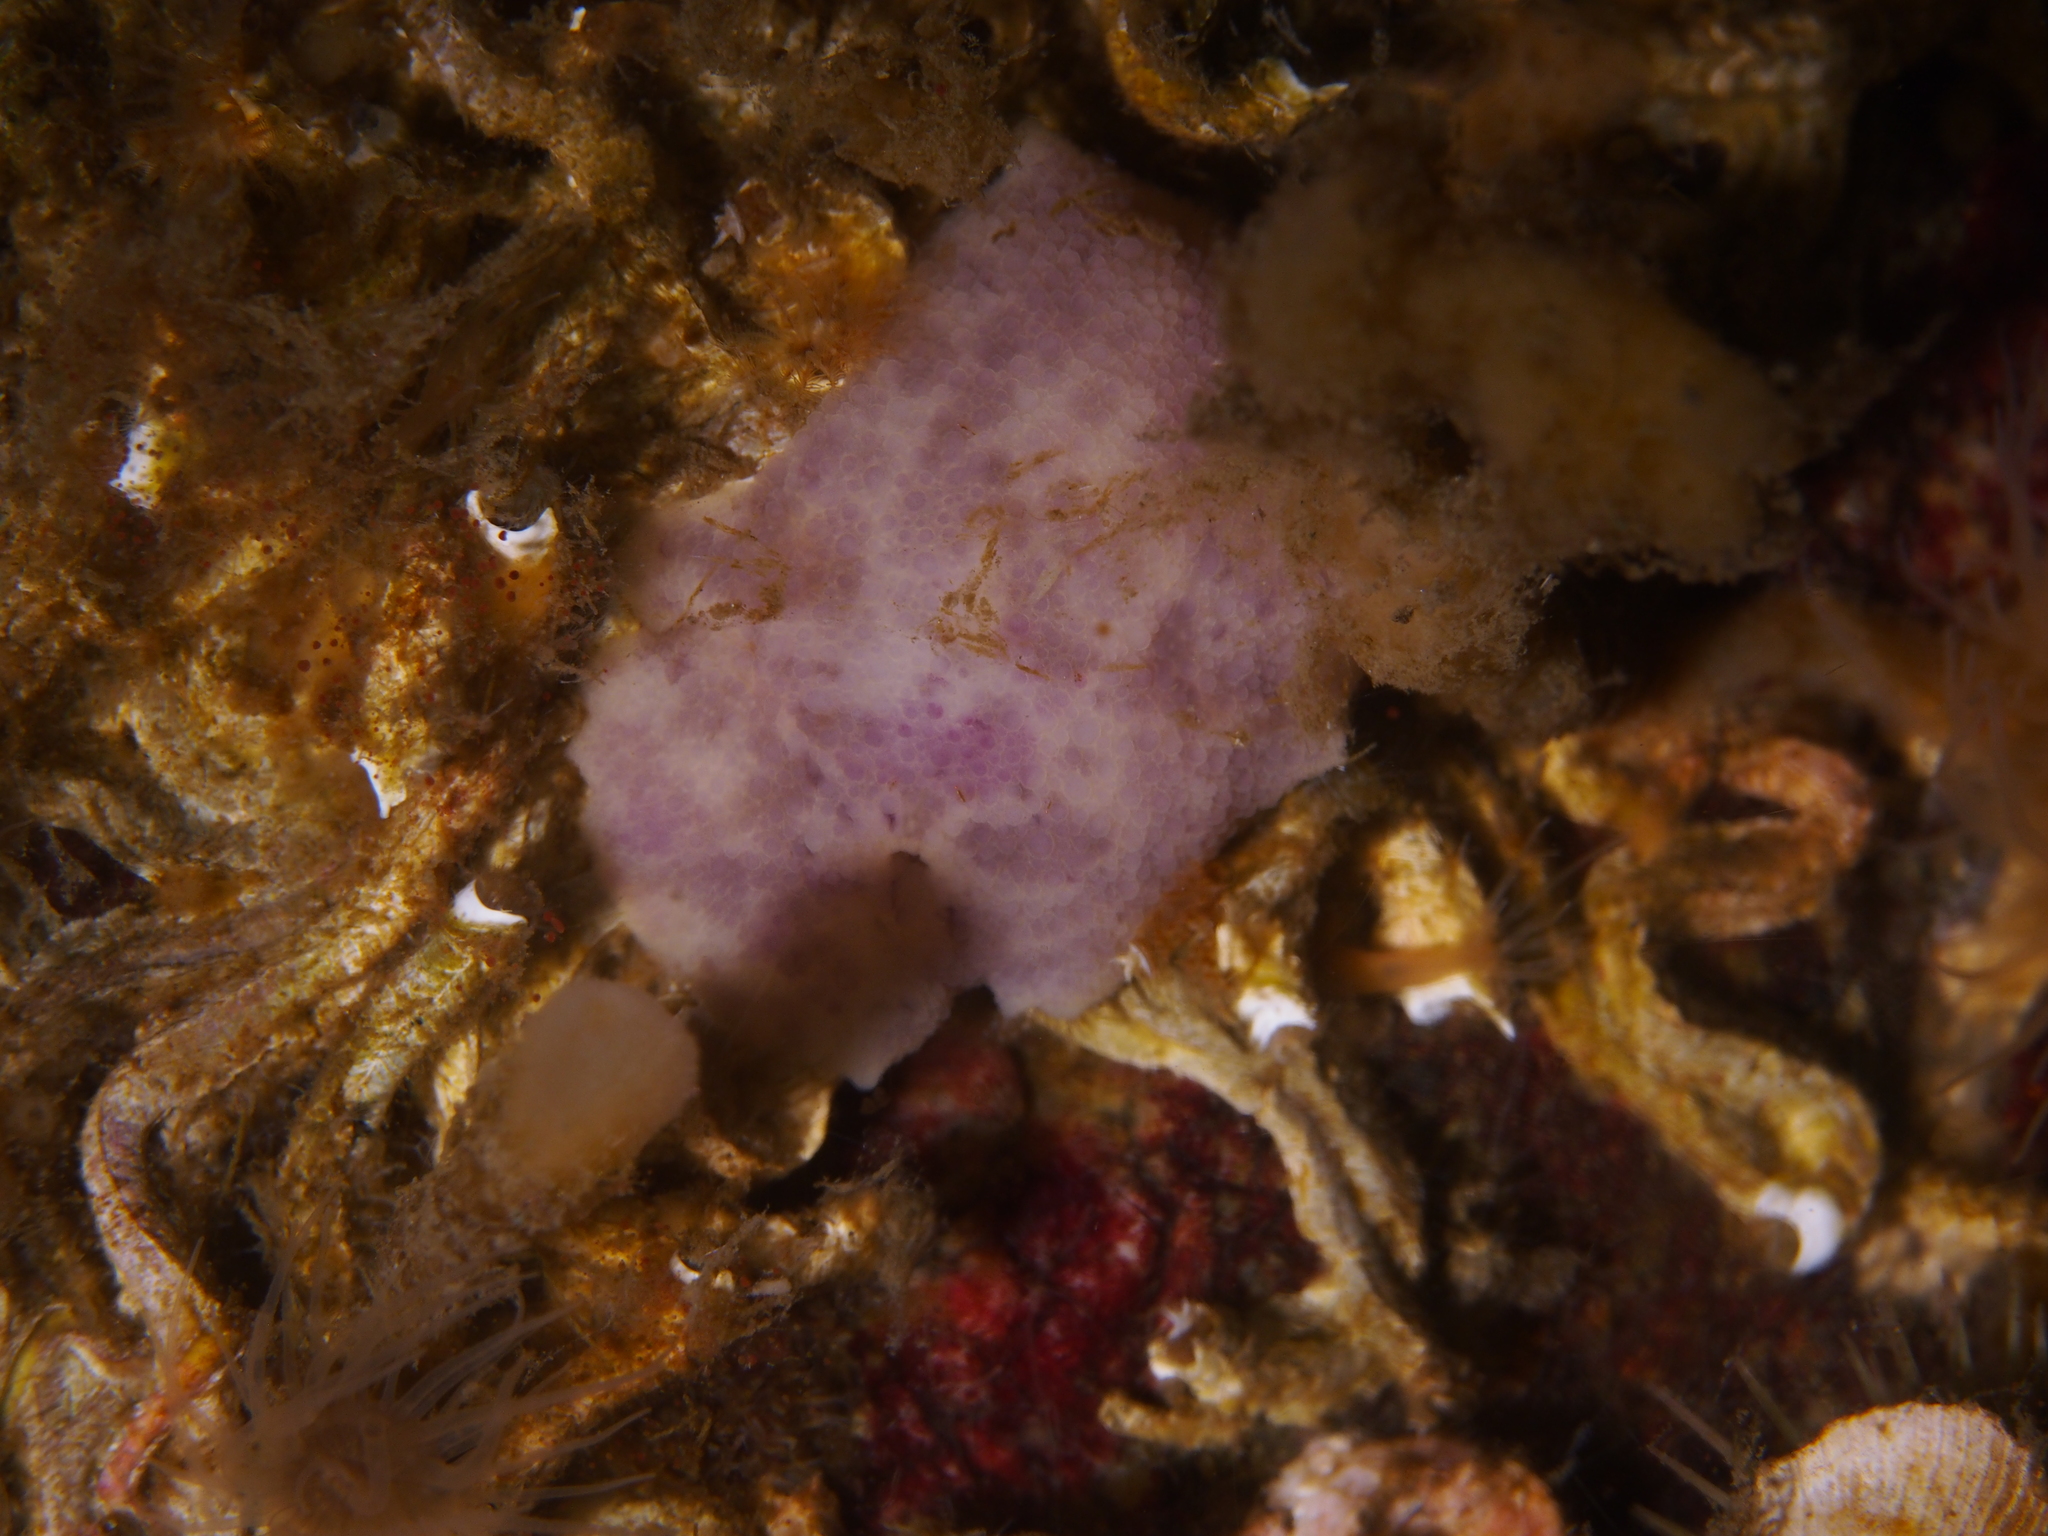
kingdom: Animalia
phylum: Mollusca
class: Gastropoda
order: Nudibranchia
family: Dorididae
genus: Doris
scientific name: Doris pseudoargus
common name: Sea lemon
